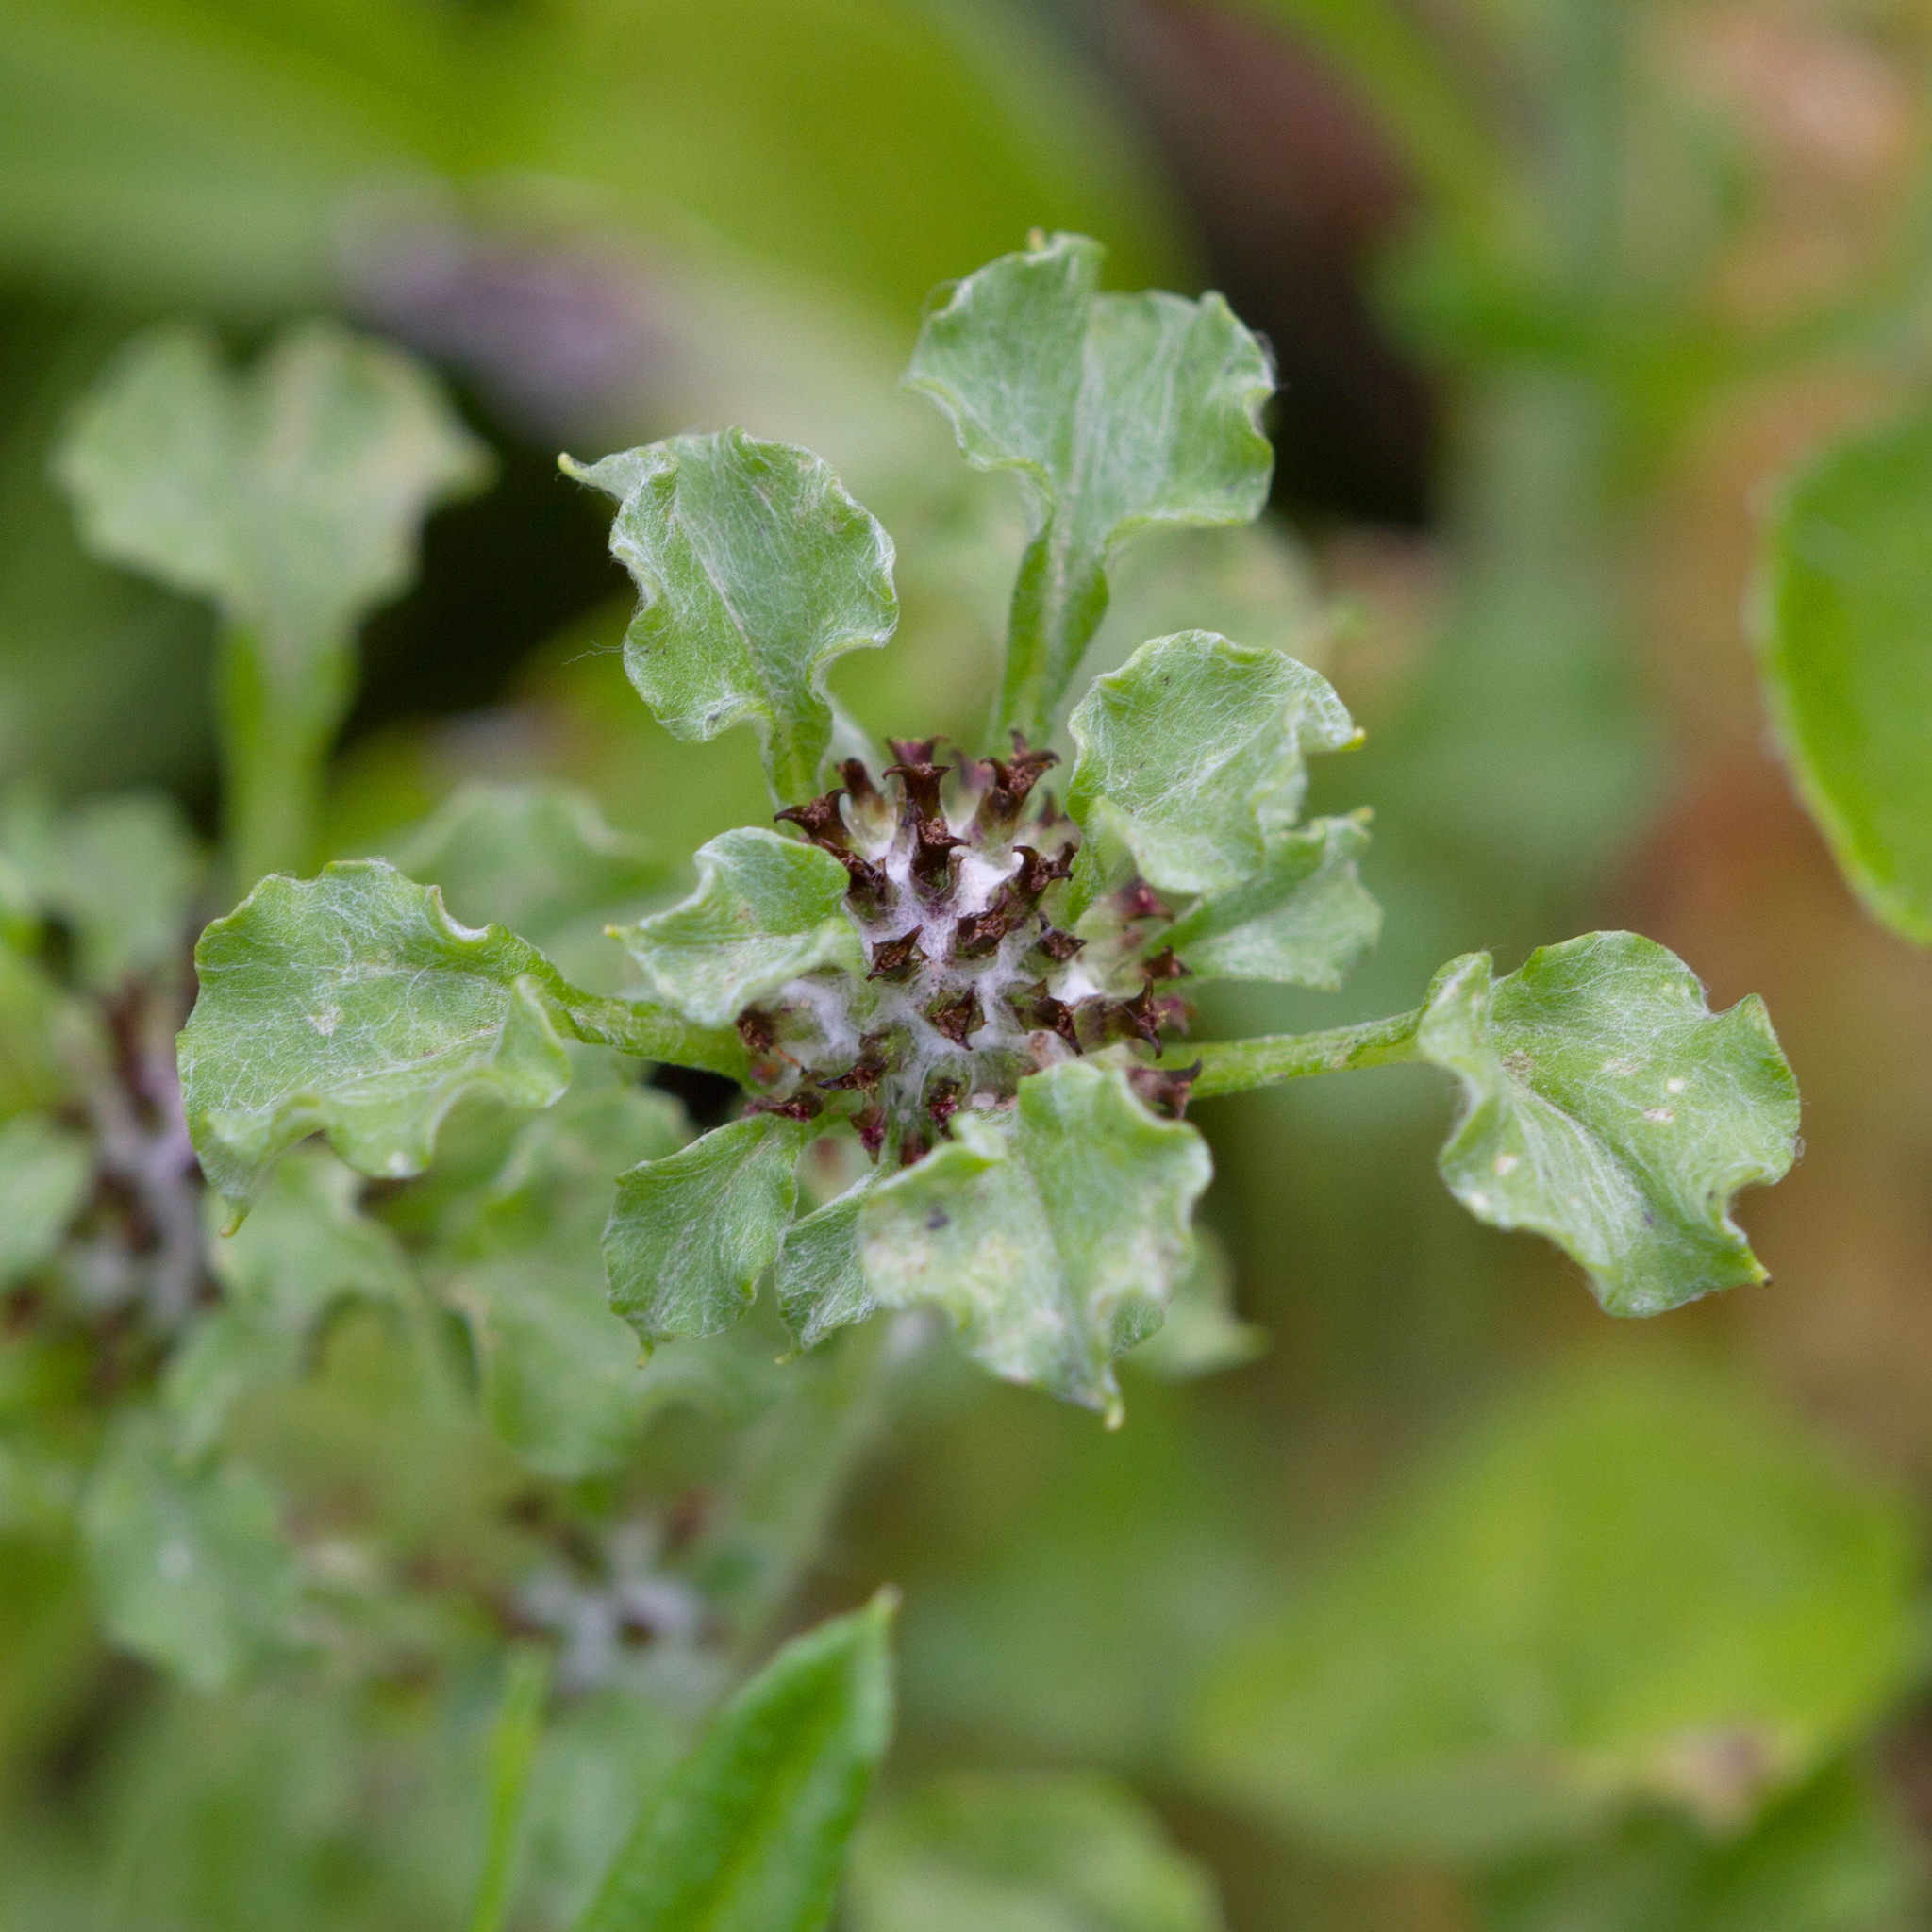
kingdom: Plantae
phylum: Tracheophyta
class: Magnoliopsida
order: Asterales
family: Asteraceae
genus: Stuartina
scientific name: Stuartina muelleri
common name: Spoon-leaved cudweed
